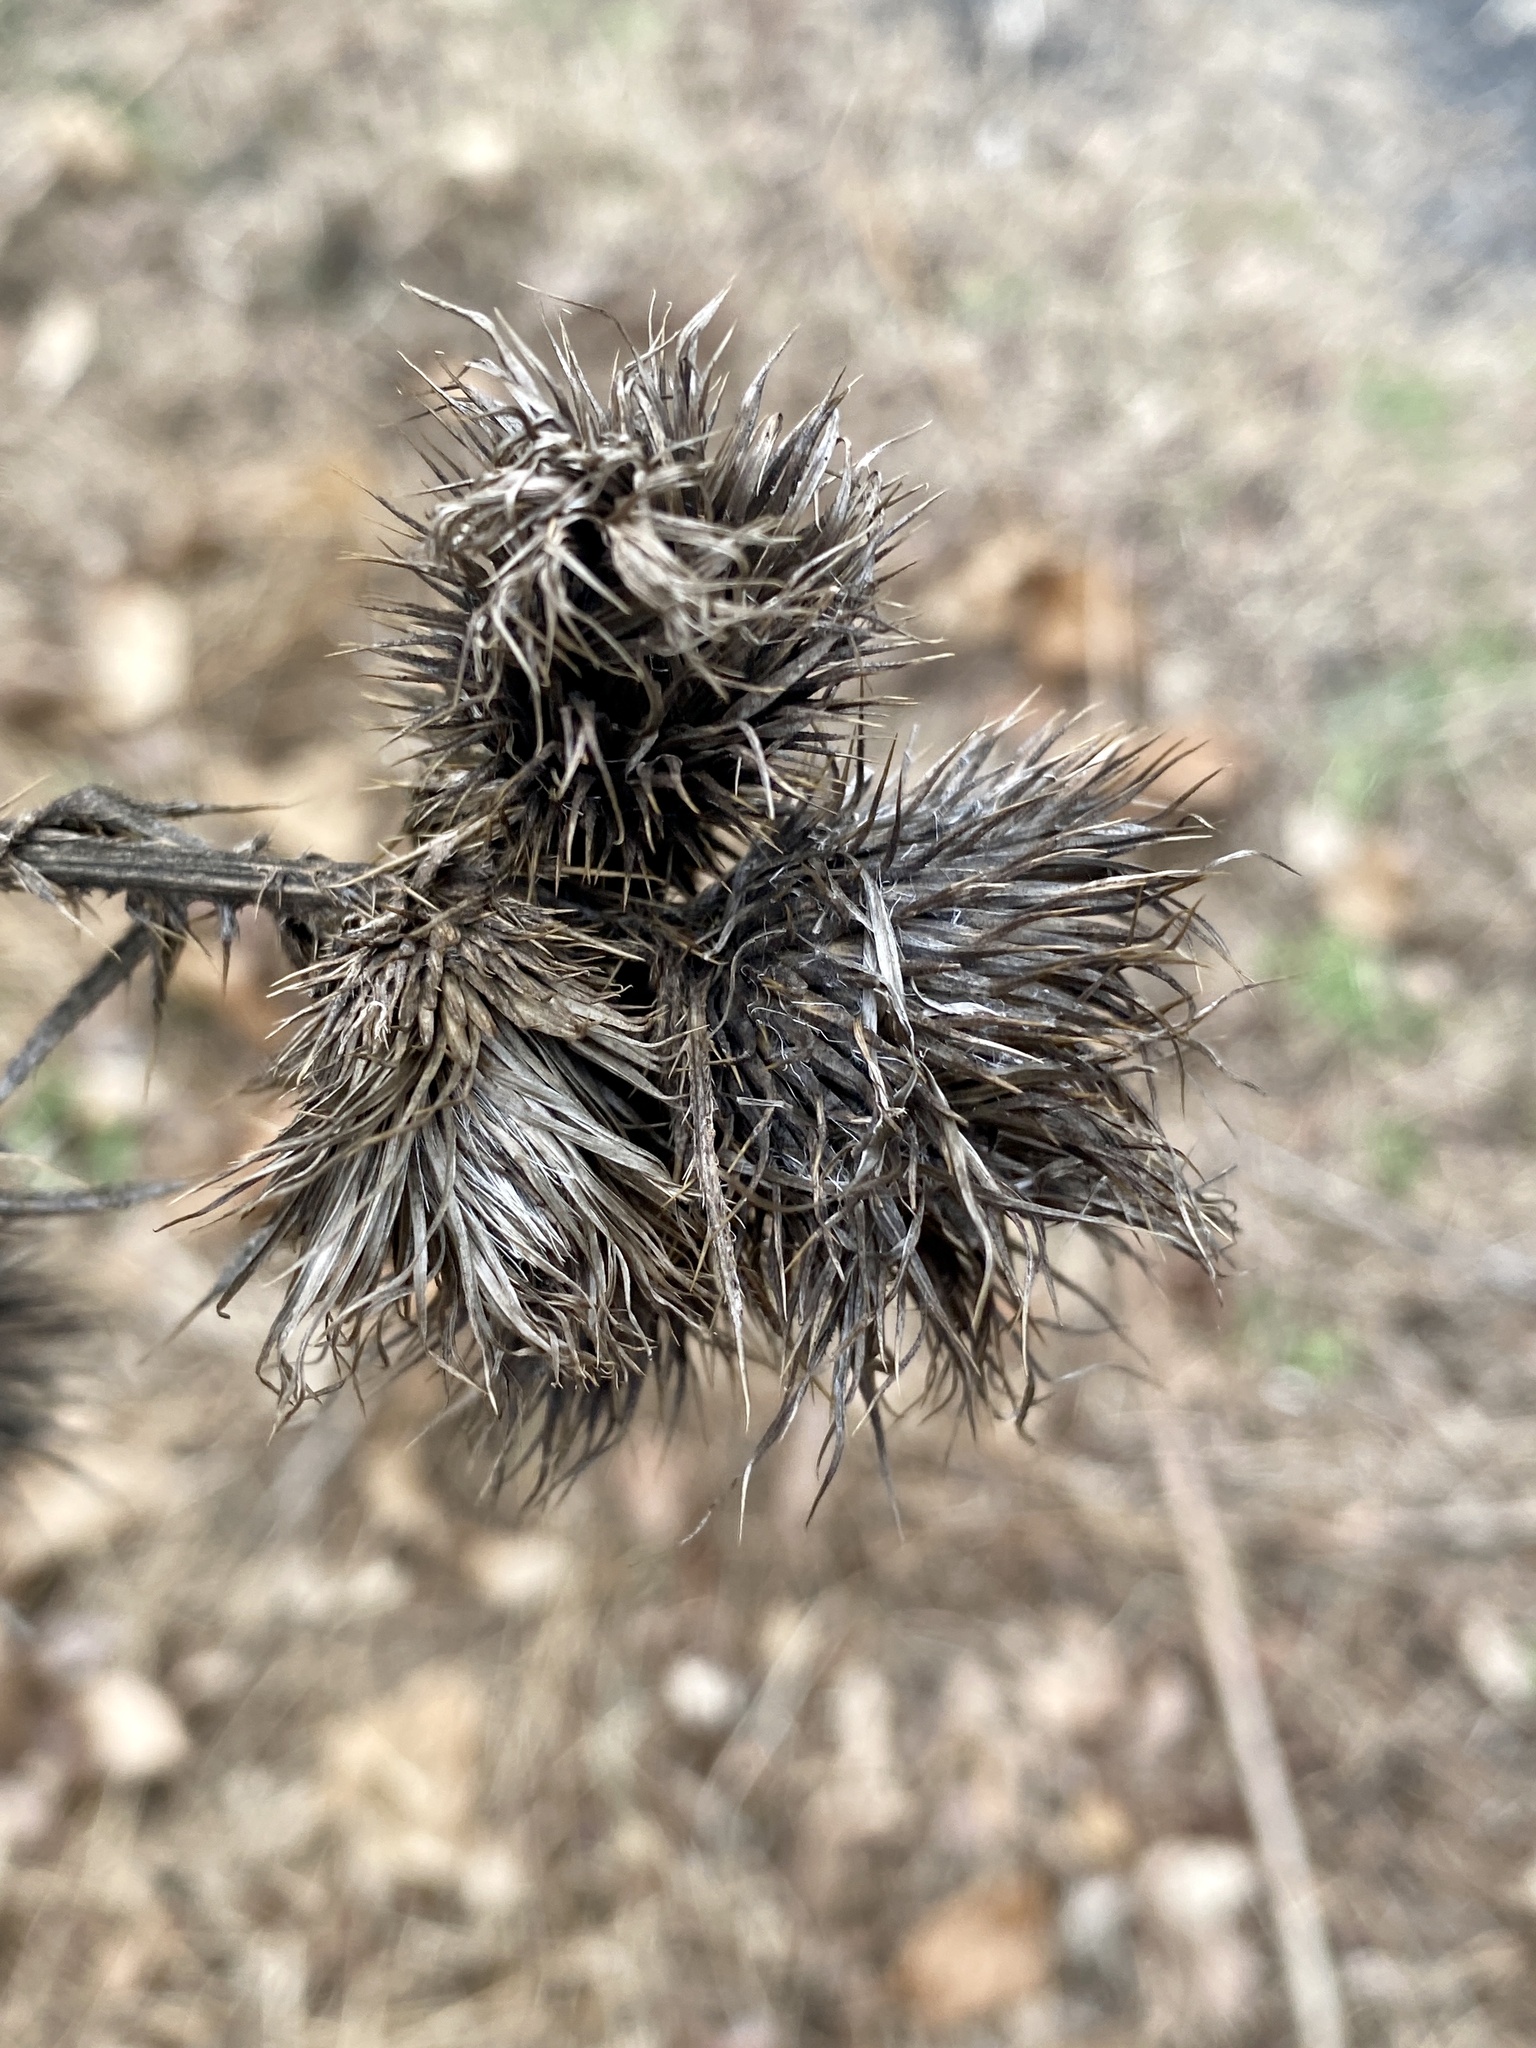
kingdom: Plantae
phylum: Tracheophyta
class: Magnoliopsida
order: Asterales
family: Asteraceae
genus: Cirsium
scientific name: Cirsium vulgare
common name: Bull thistle
